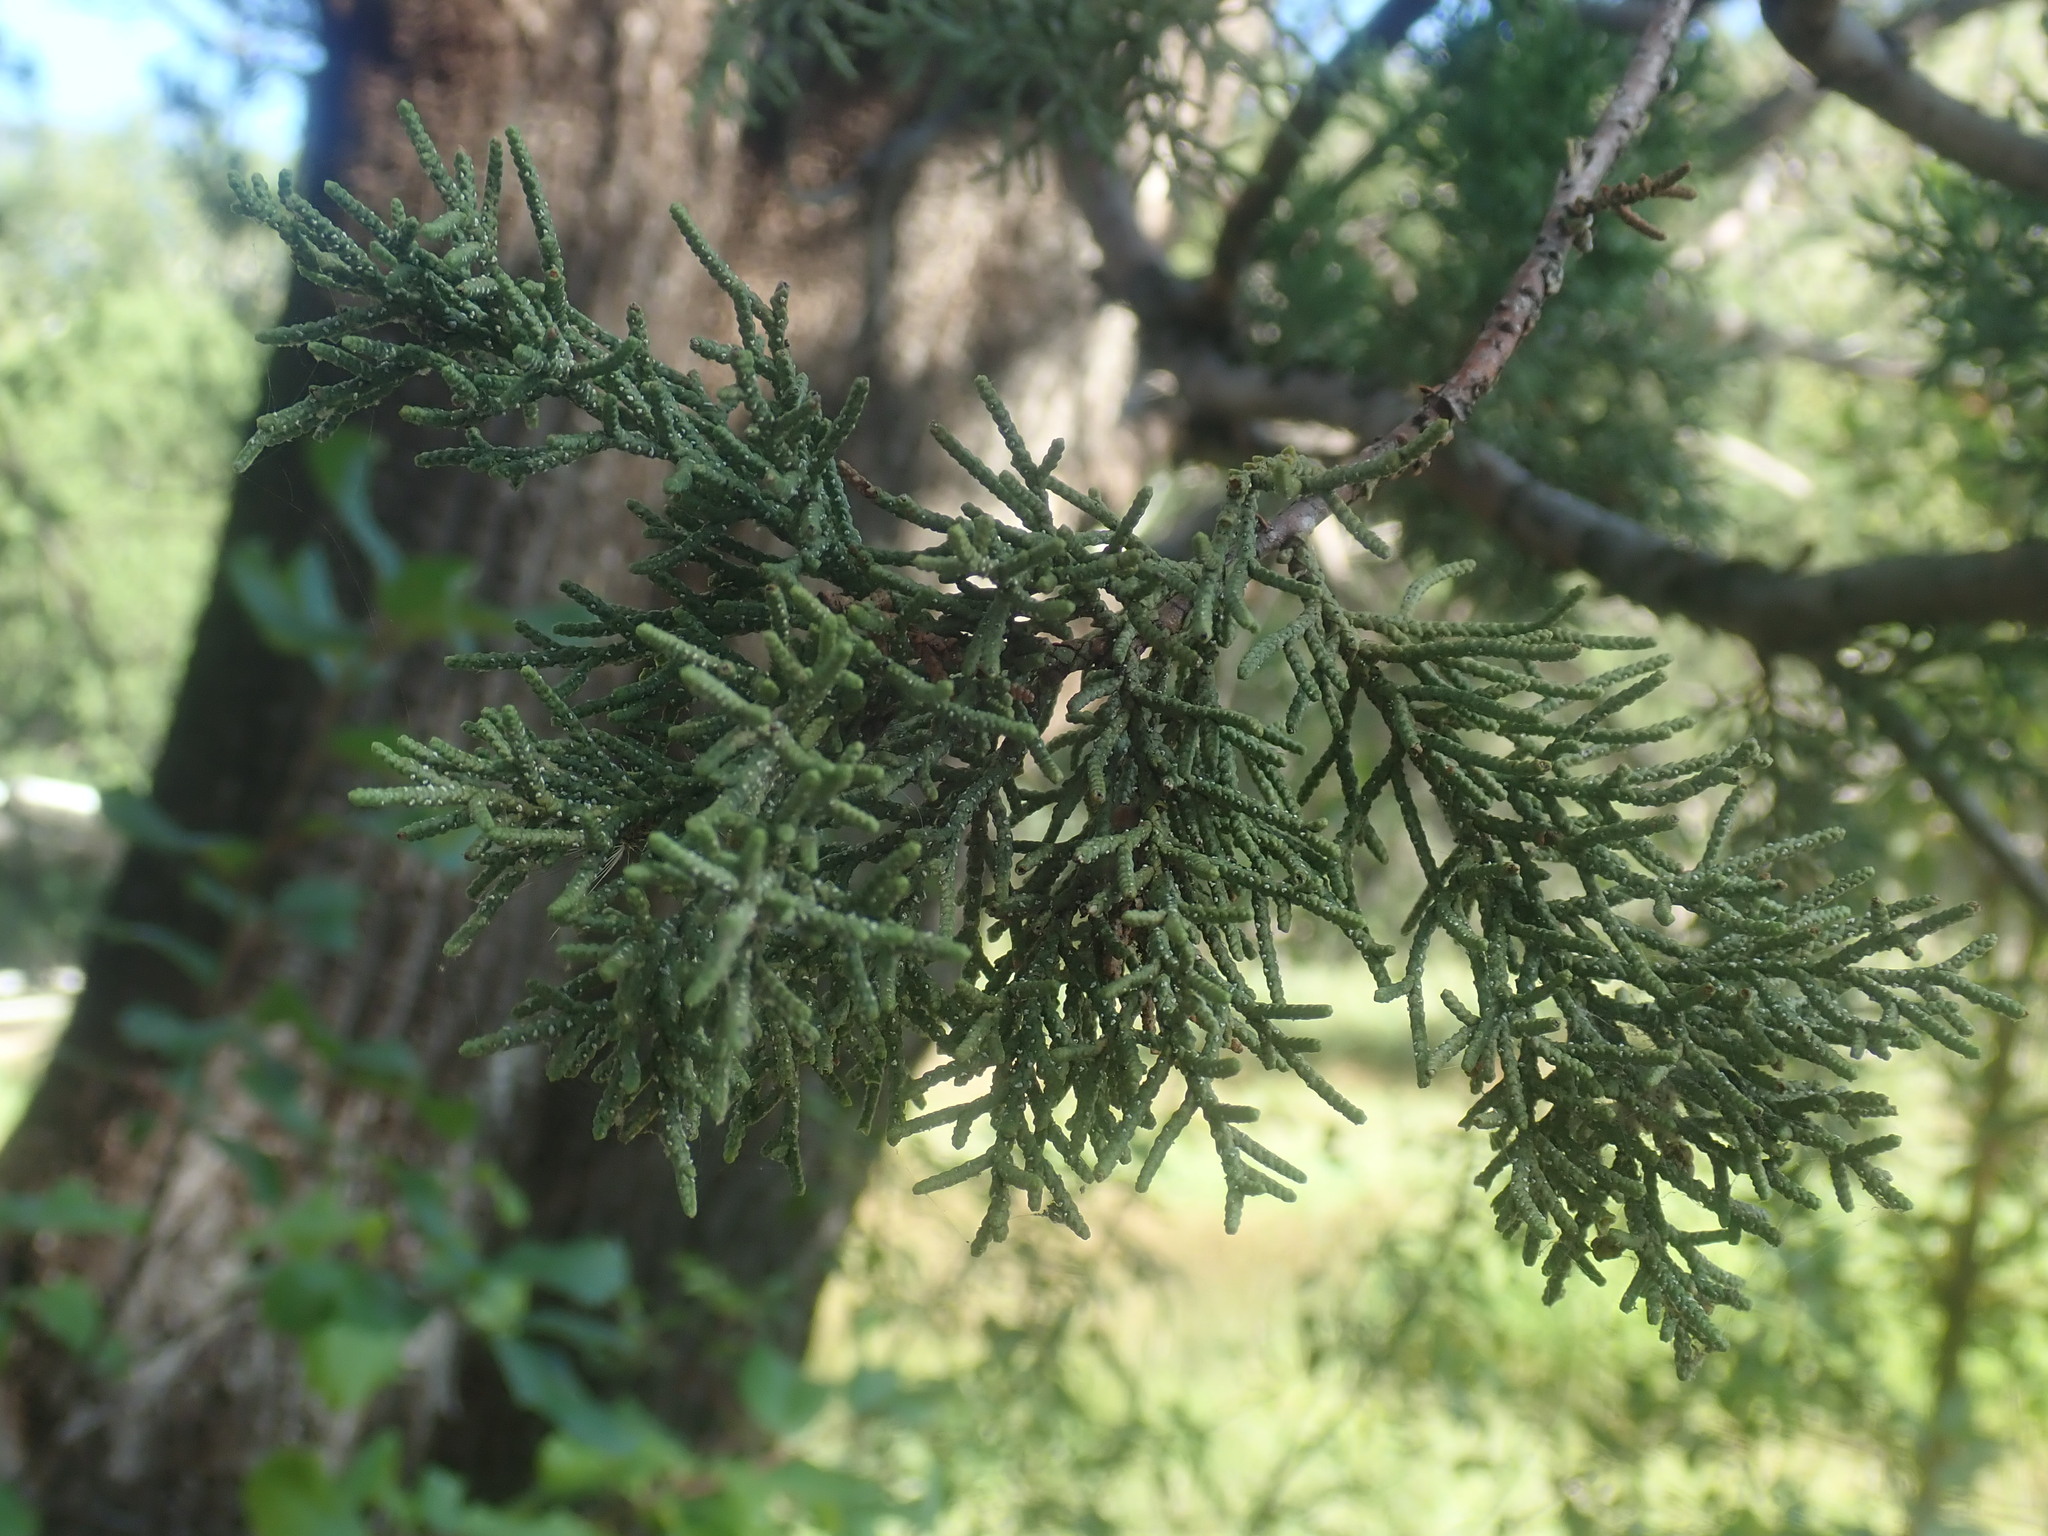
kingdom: Plantae
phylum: Tracheophyta
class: Pinopsida
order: Pinales
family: Cupressaceae
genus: Juniperus
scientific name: Juniperus deppeana
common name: Alligator juniper
